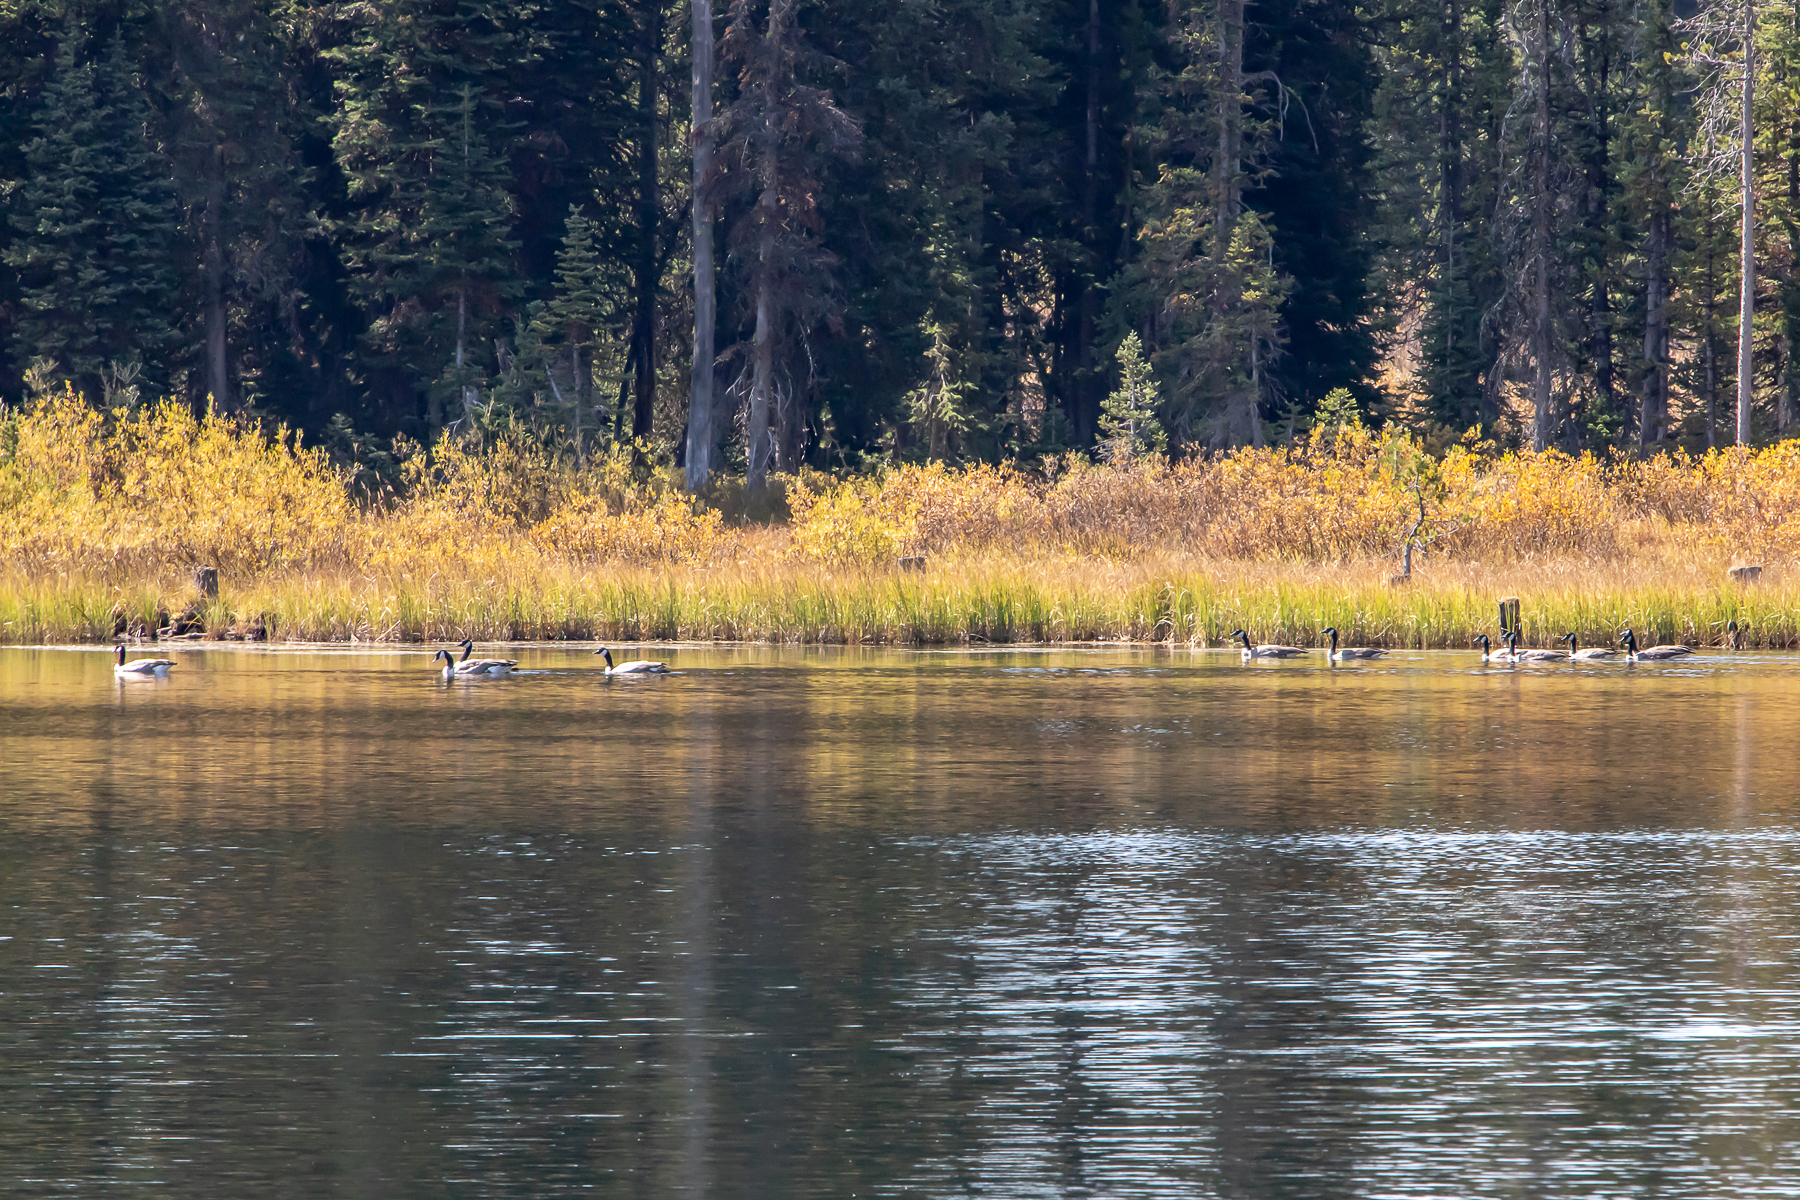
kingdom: Animalia
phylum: Chordata
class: Aves
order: Anseriformes
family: Anatidae
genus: Branta
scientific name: Branta canadensis
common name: Canada goose
